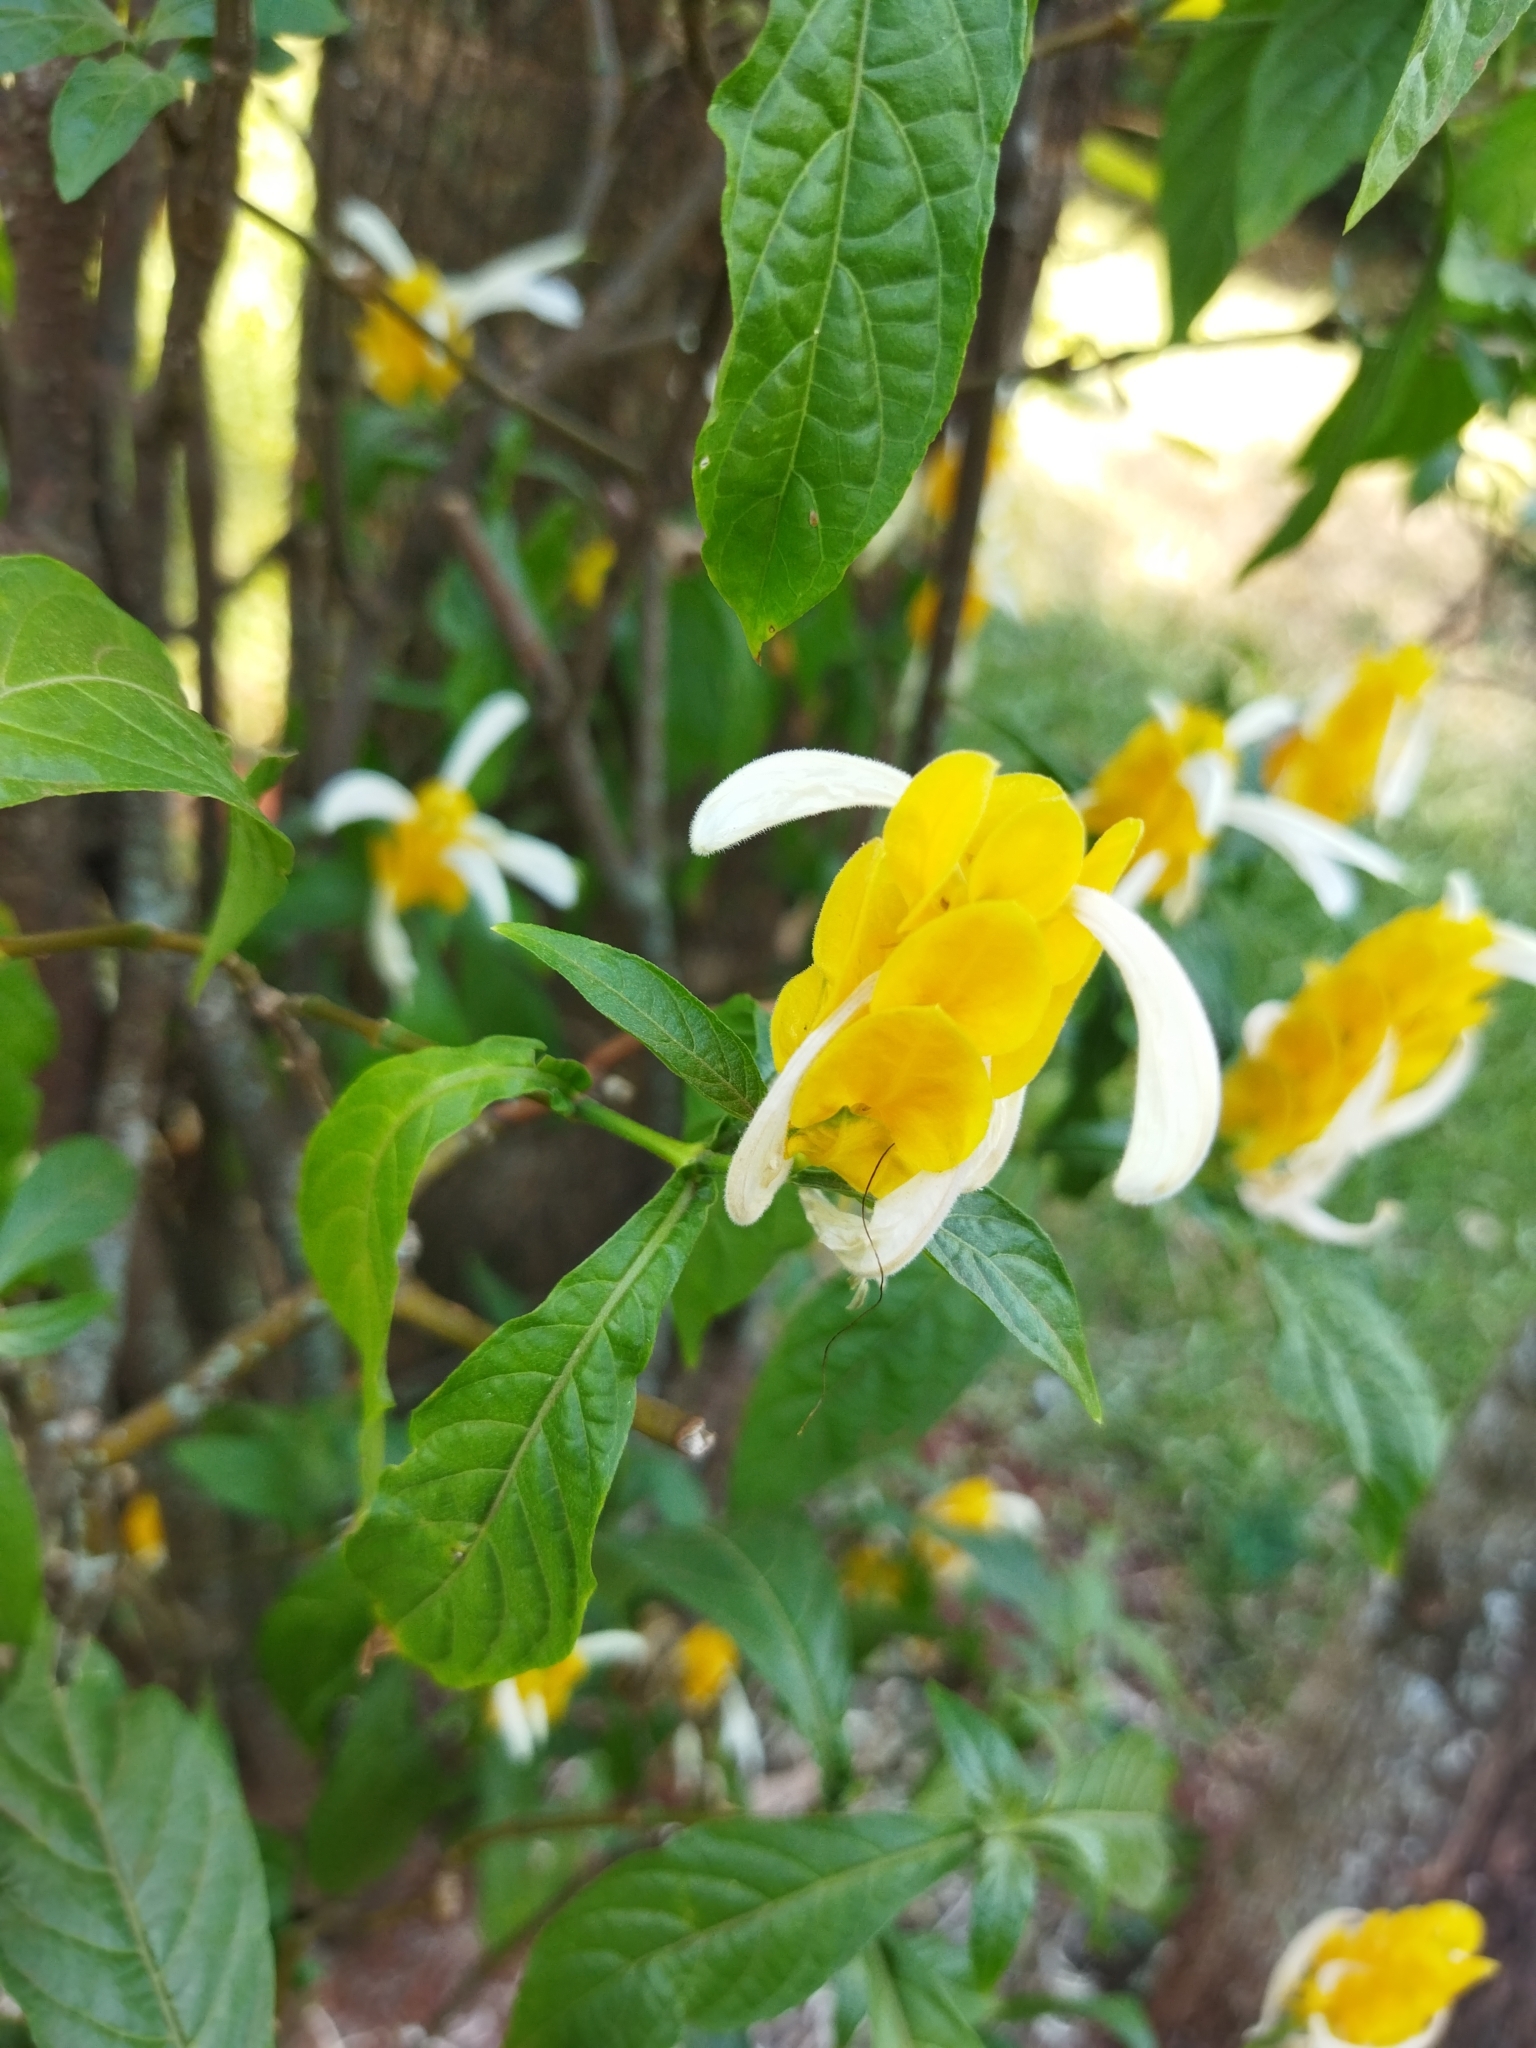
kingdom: Plantae
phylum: Tracheophyta
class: Magnoliopsida
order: Lamiales
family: Acanthaceae
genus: Pachystachys
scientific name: Pachystachys lutea
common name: Golden shrimp-plant
